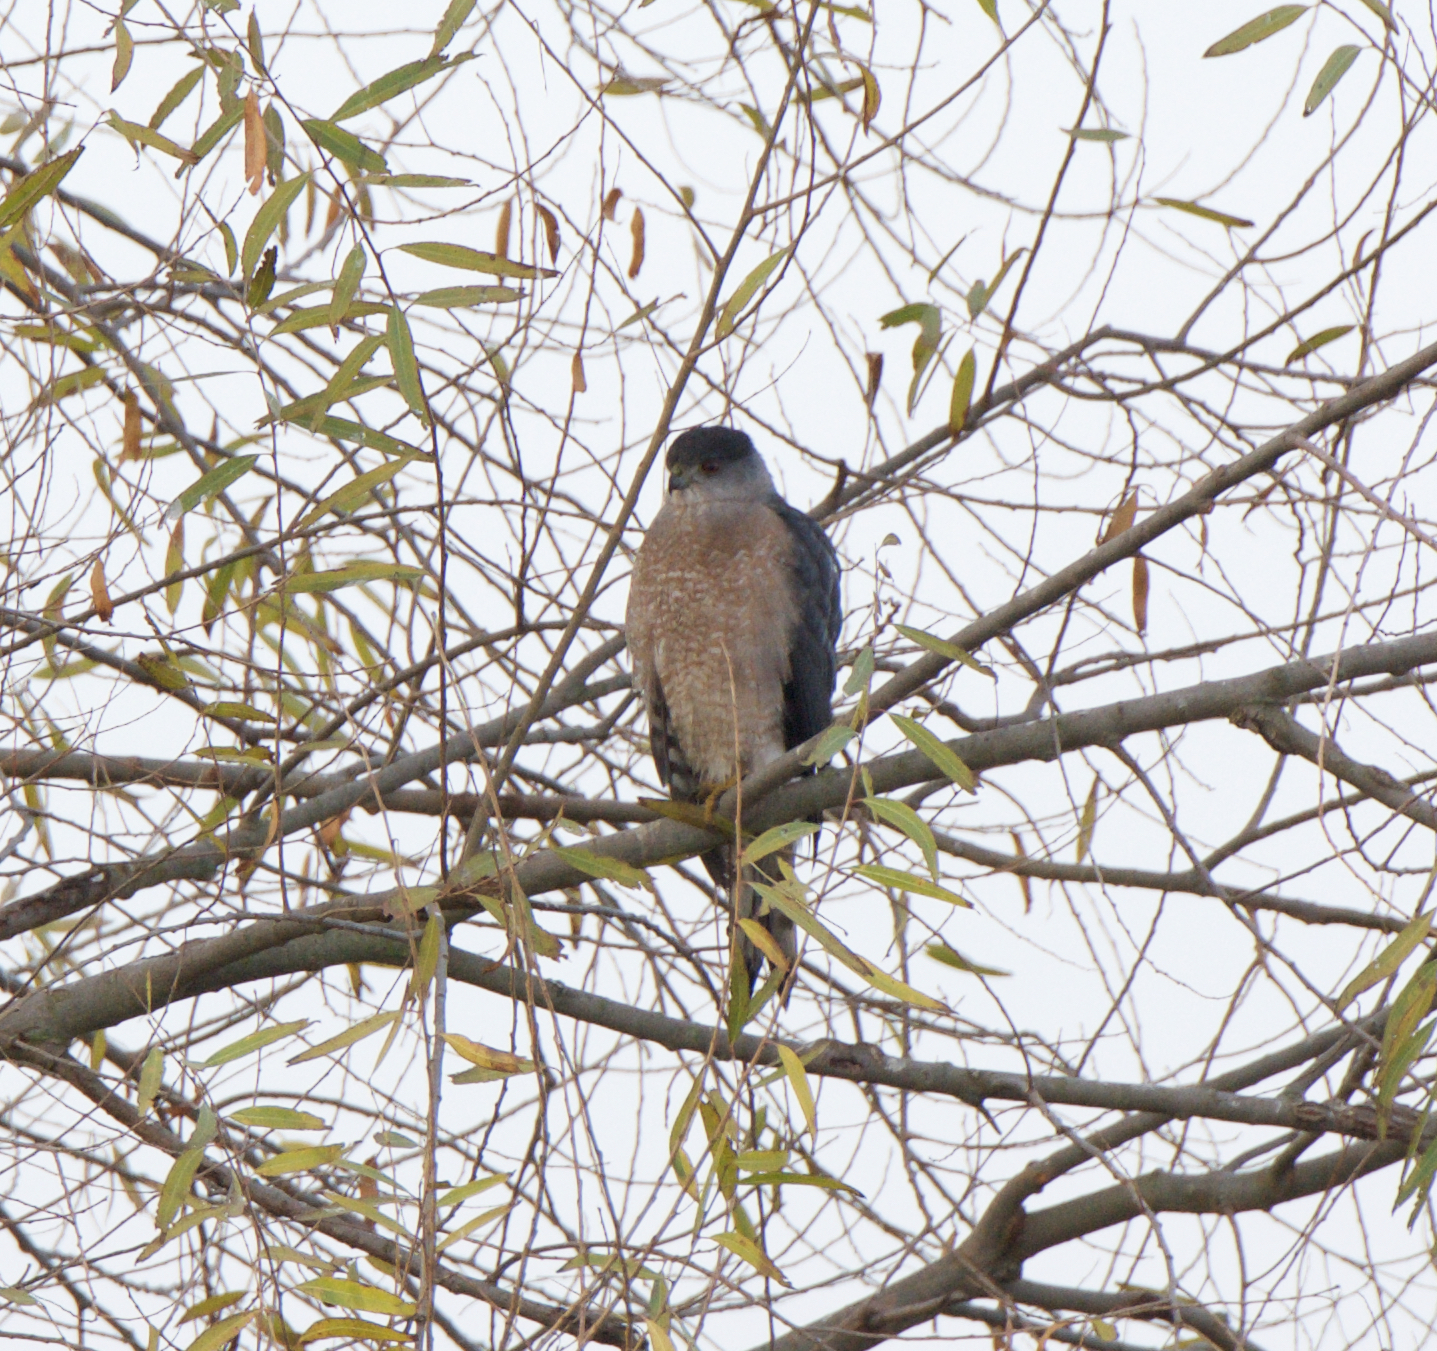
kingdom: Animalia
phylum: Chordata
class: Aves
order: Accipitriformes
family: Accipitridae
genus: Accipiter
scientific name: Accipiter cooperii
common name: Cooper's hawk
